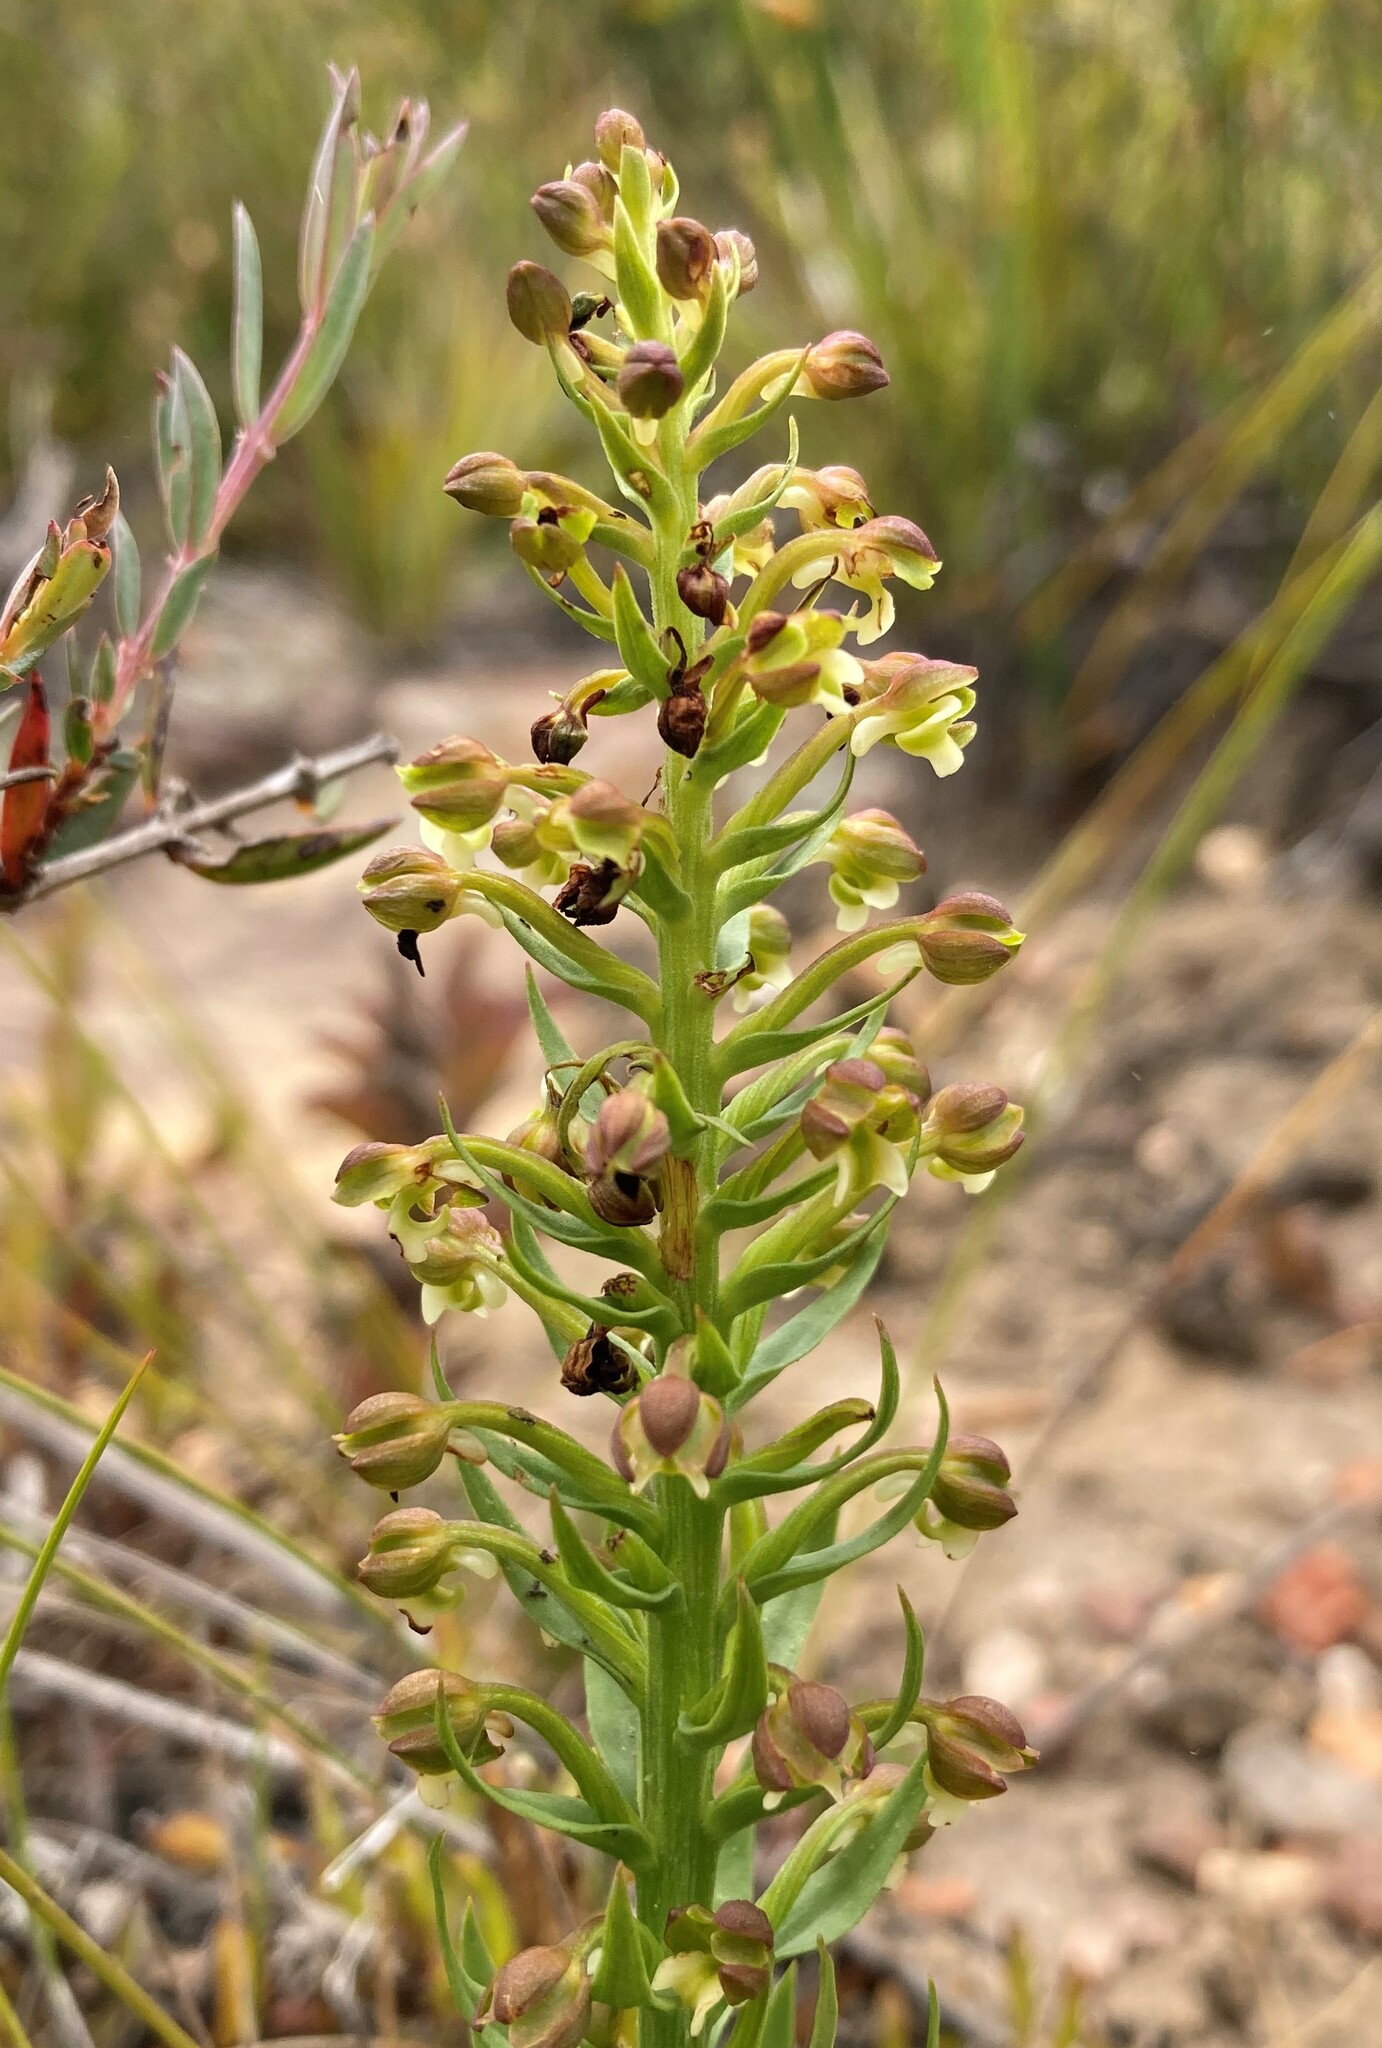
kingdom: Plantae
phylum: Tracheophyta
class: Liliopsida
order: Asparagales
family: Orchidaceae
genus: Brachycorythis
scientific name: Brachycorythis mac-owaniana
